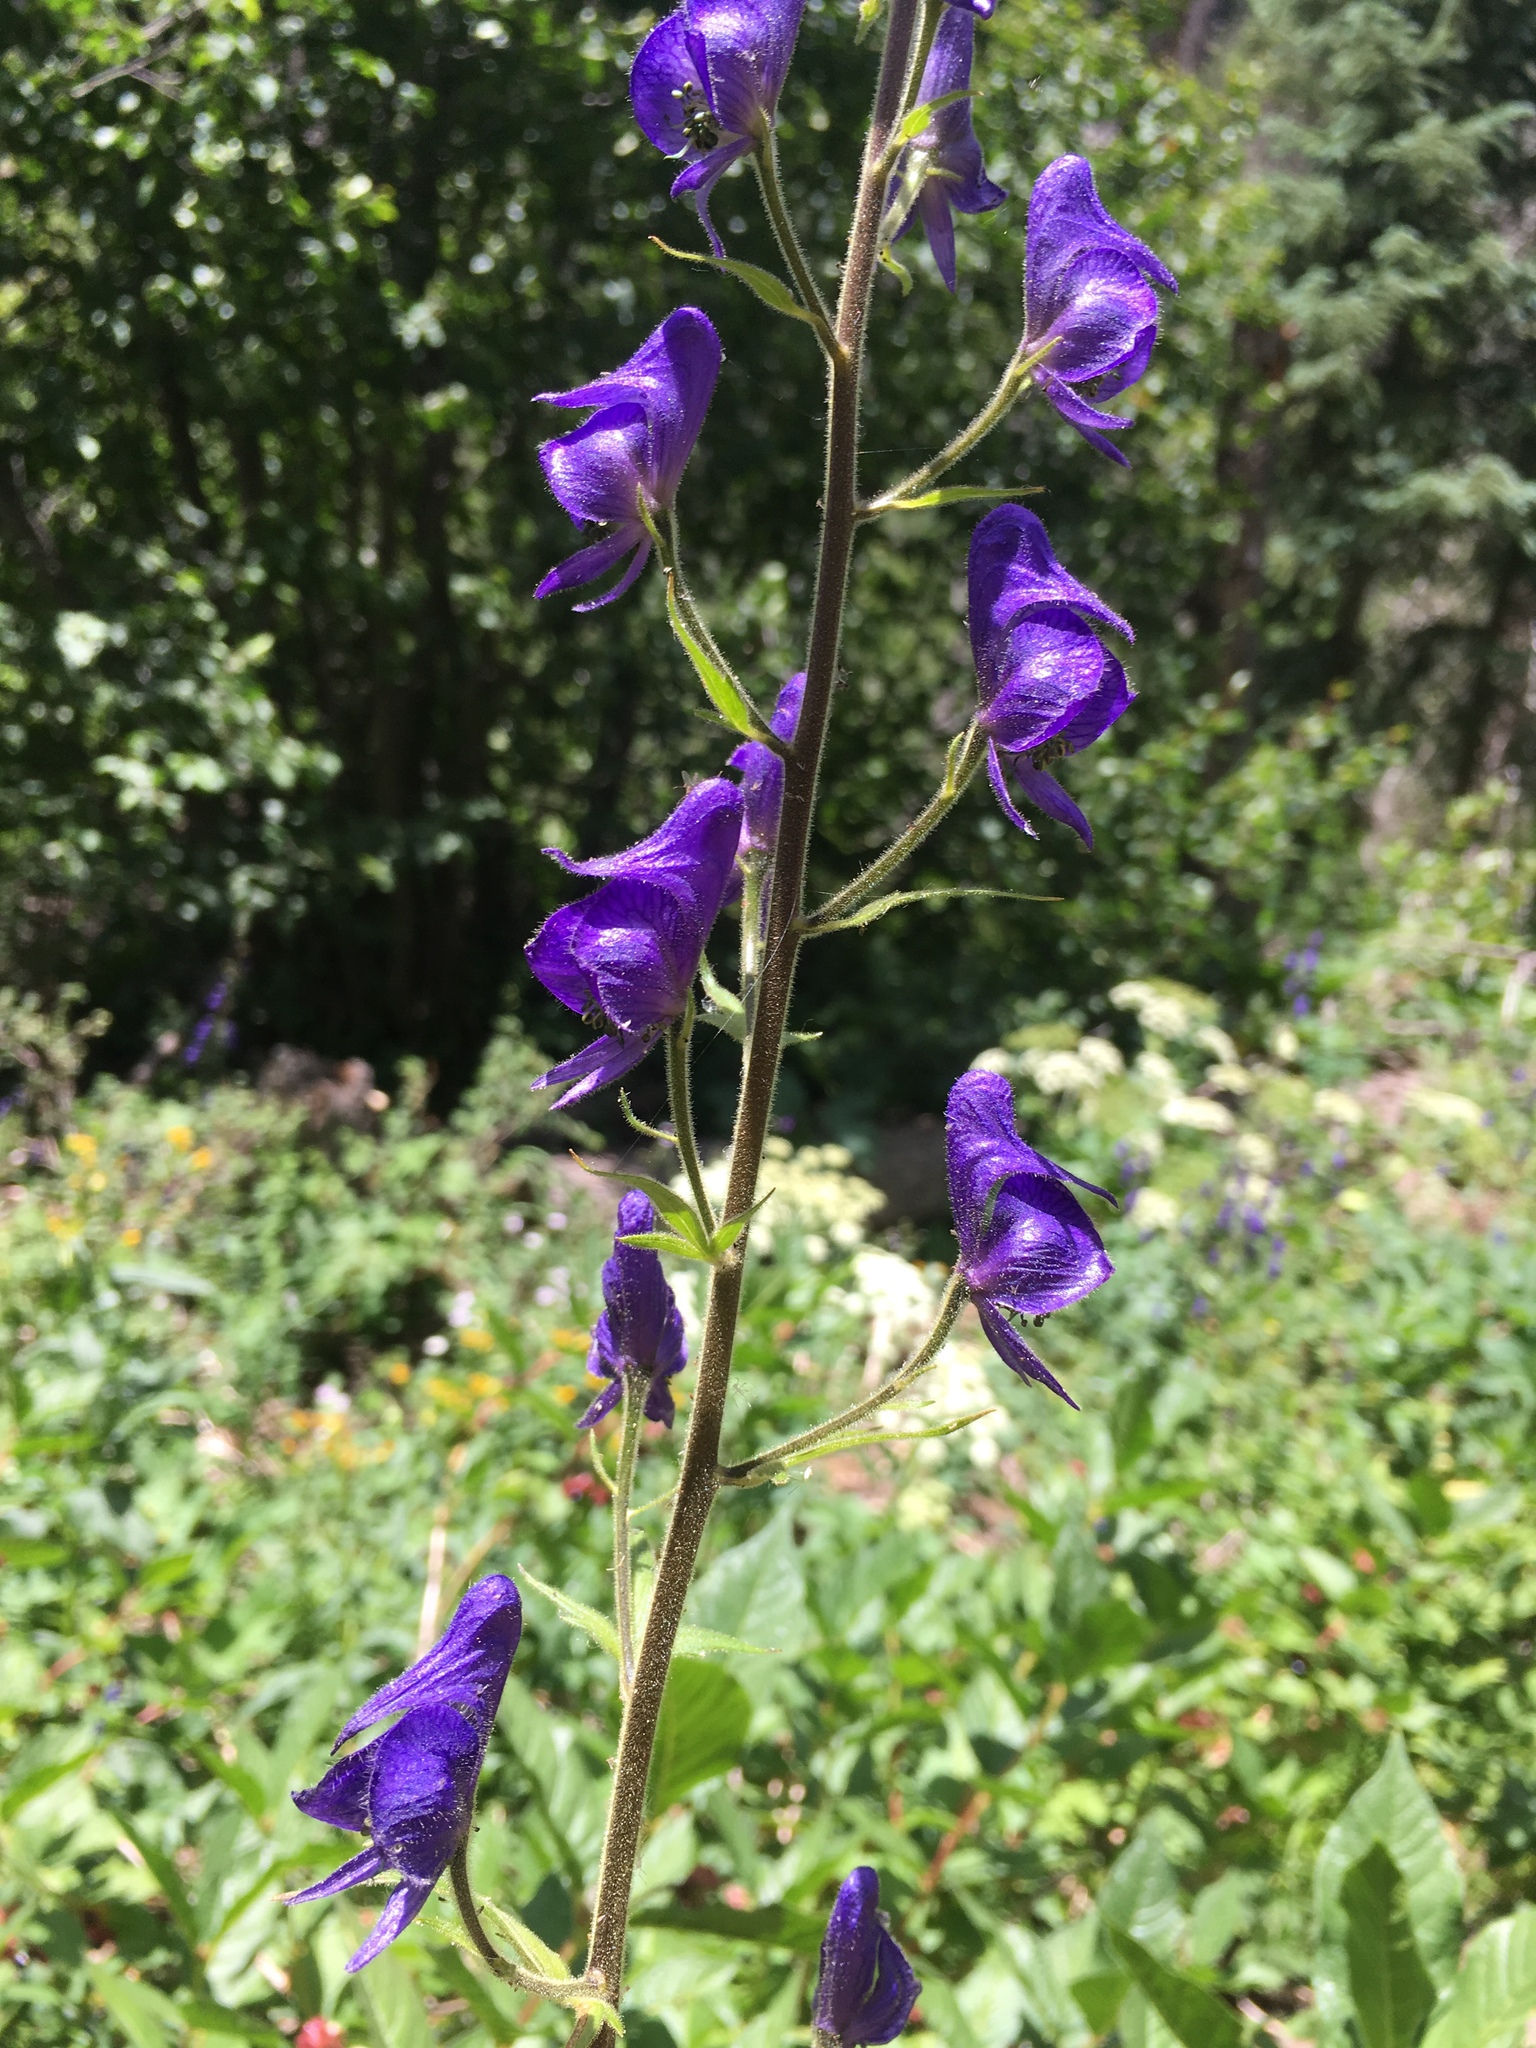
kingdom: Plantae
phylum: Tracheophyta
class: Magnoliopsida
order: Ranunculales
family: Ranunculaceae
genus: Aconitum
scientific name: Aconitum columbianum
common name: Columbia aconite
